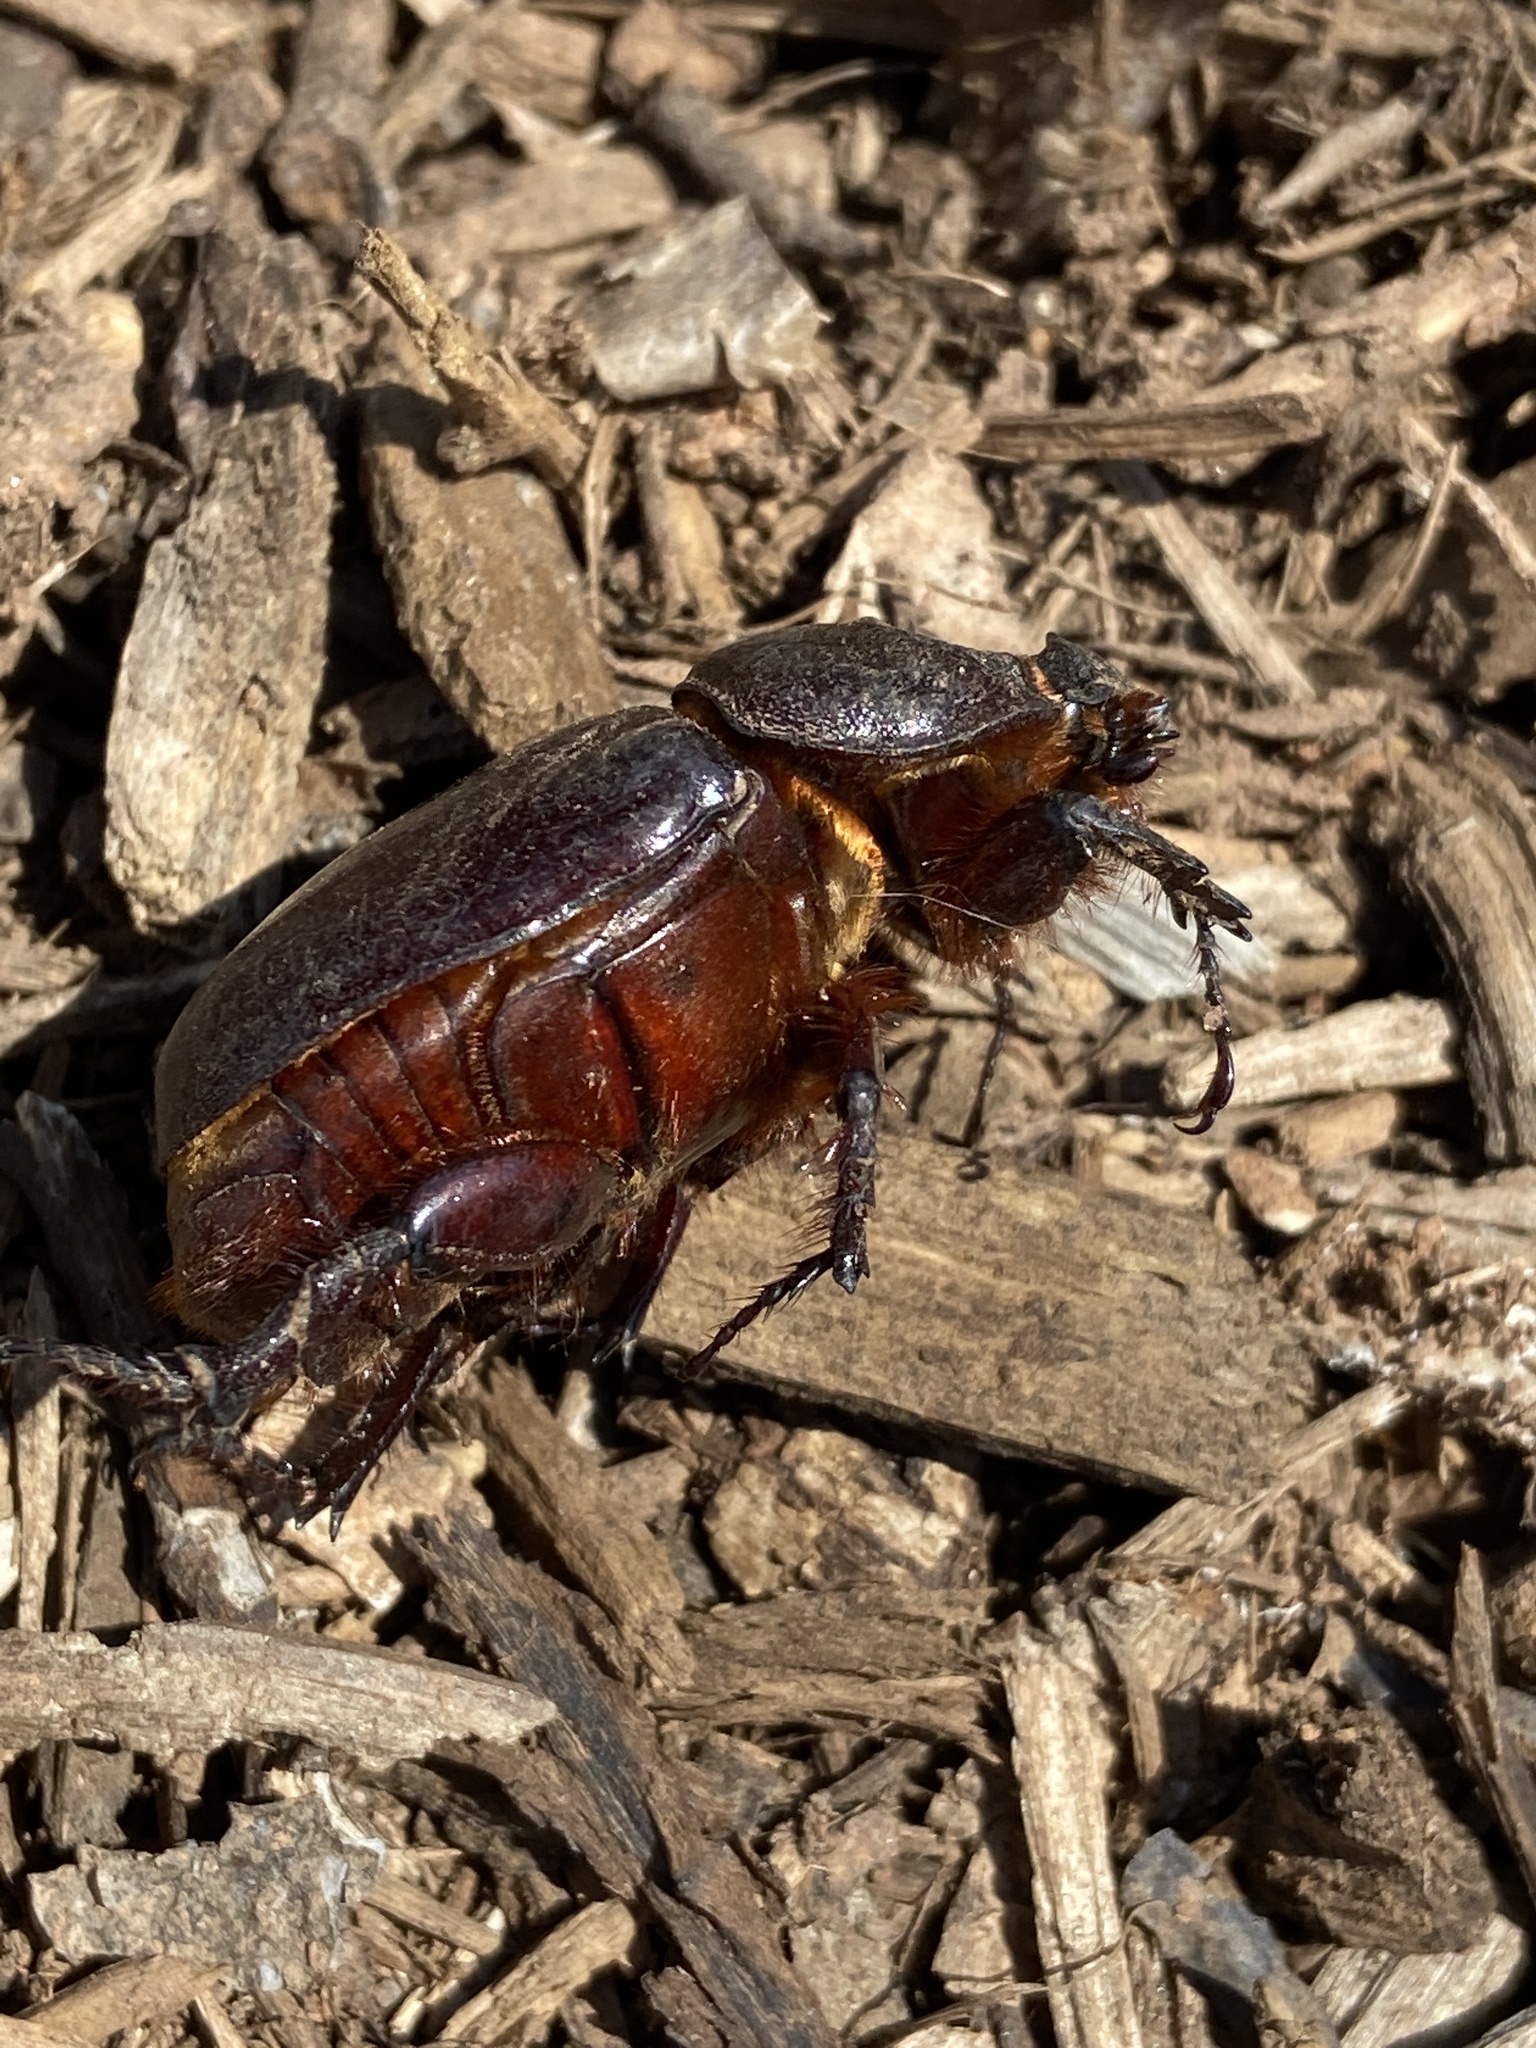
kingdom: Animalia
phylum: Arthropoda
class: Insecta
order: Coleoptera
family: Scarabaeidae
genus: Oryctes
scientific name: Oryctes nasicornis
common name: European rhinoceros beetle
